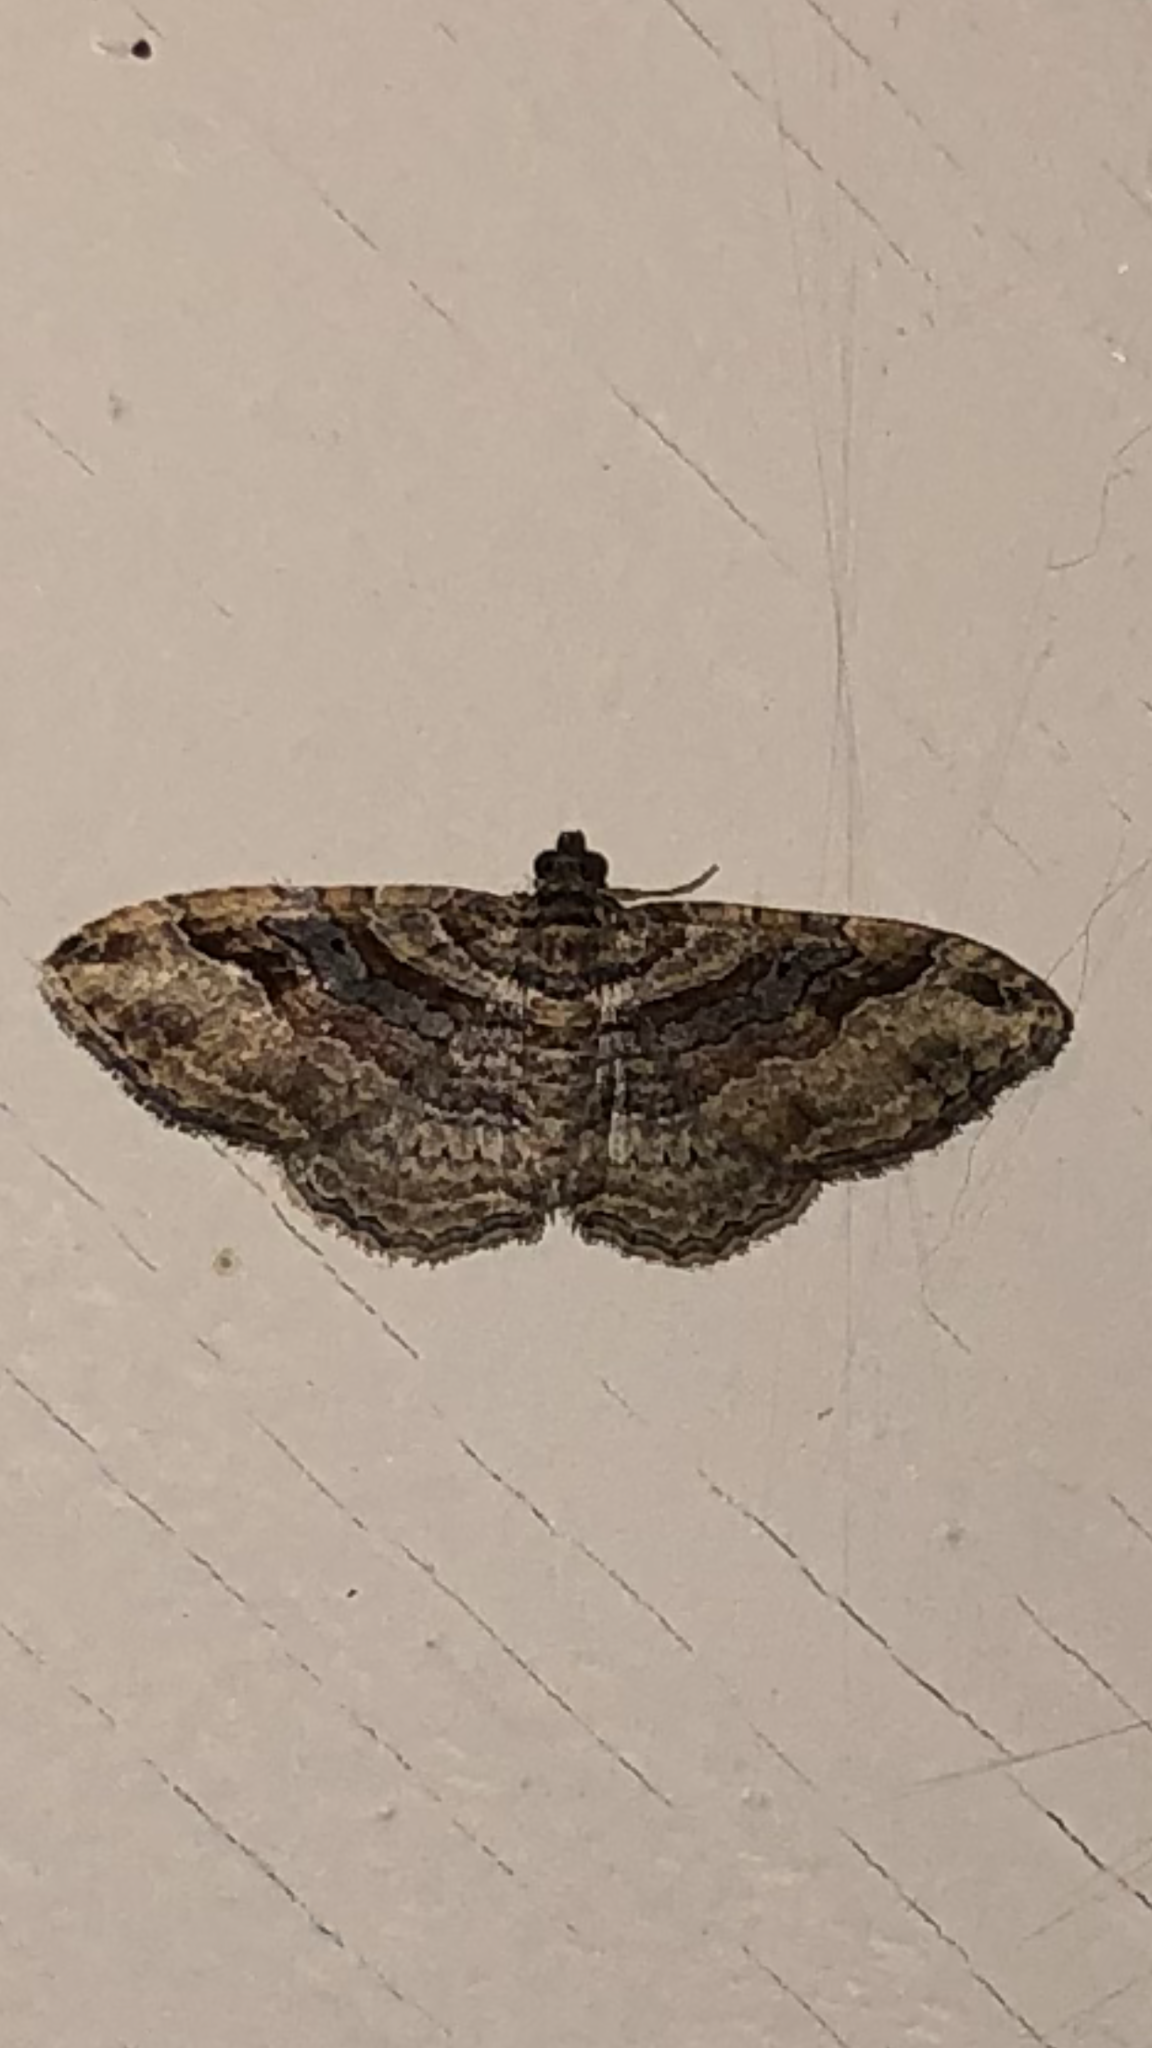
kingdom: Animalia
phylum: Arthropoda
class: Insecta
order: Lepidoptera
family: Geometridae
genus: Costaconvexa
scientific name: Costaconvexa centrostrigaria
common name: Bent-line carpet
